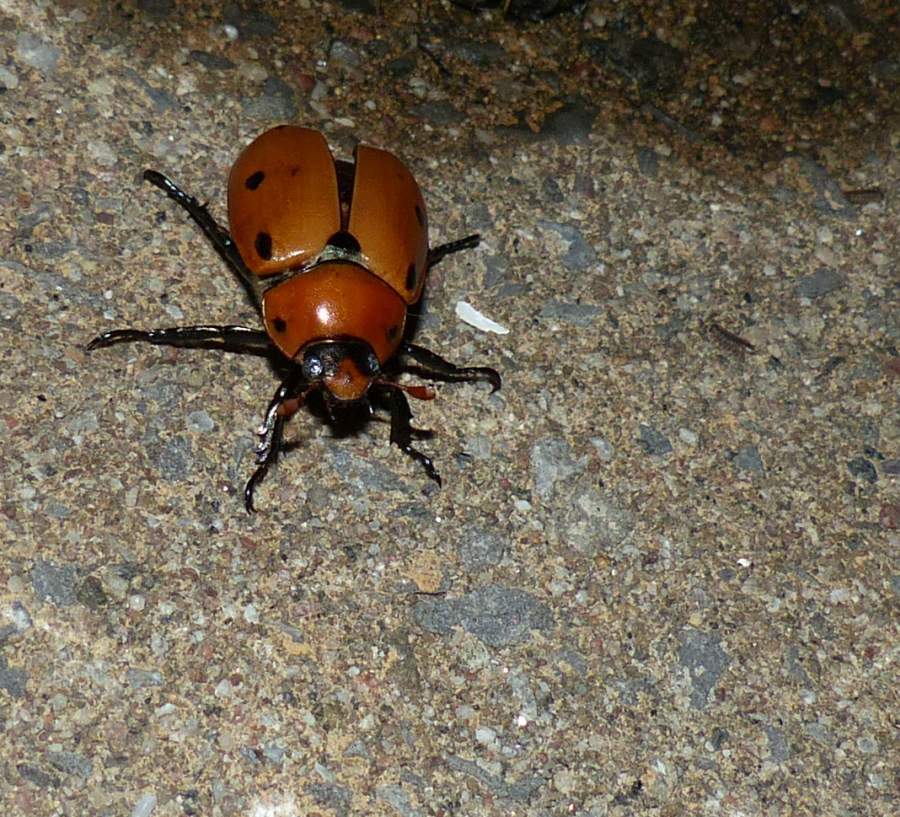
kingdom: Animalia
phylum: Arthropoda
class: Insecta
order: Coleoptera
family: Scarabaeidae
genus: Pelidnota
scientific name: Pelidnota punctata
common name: Grapevine beetle
